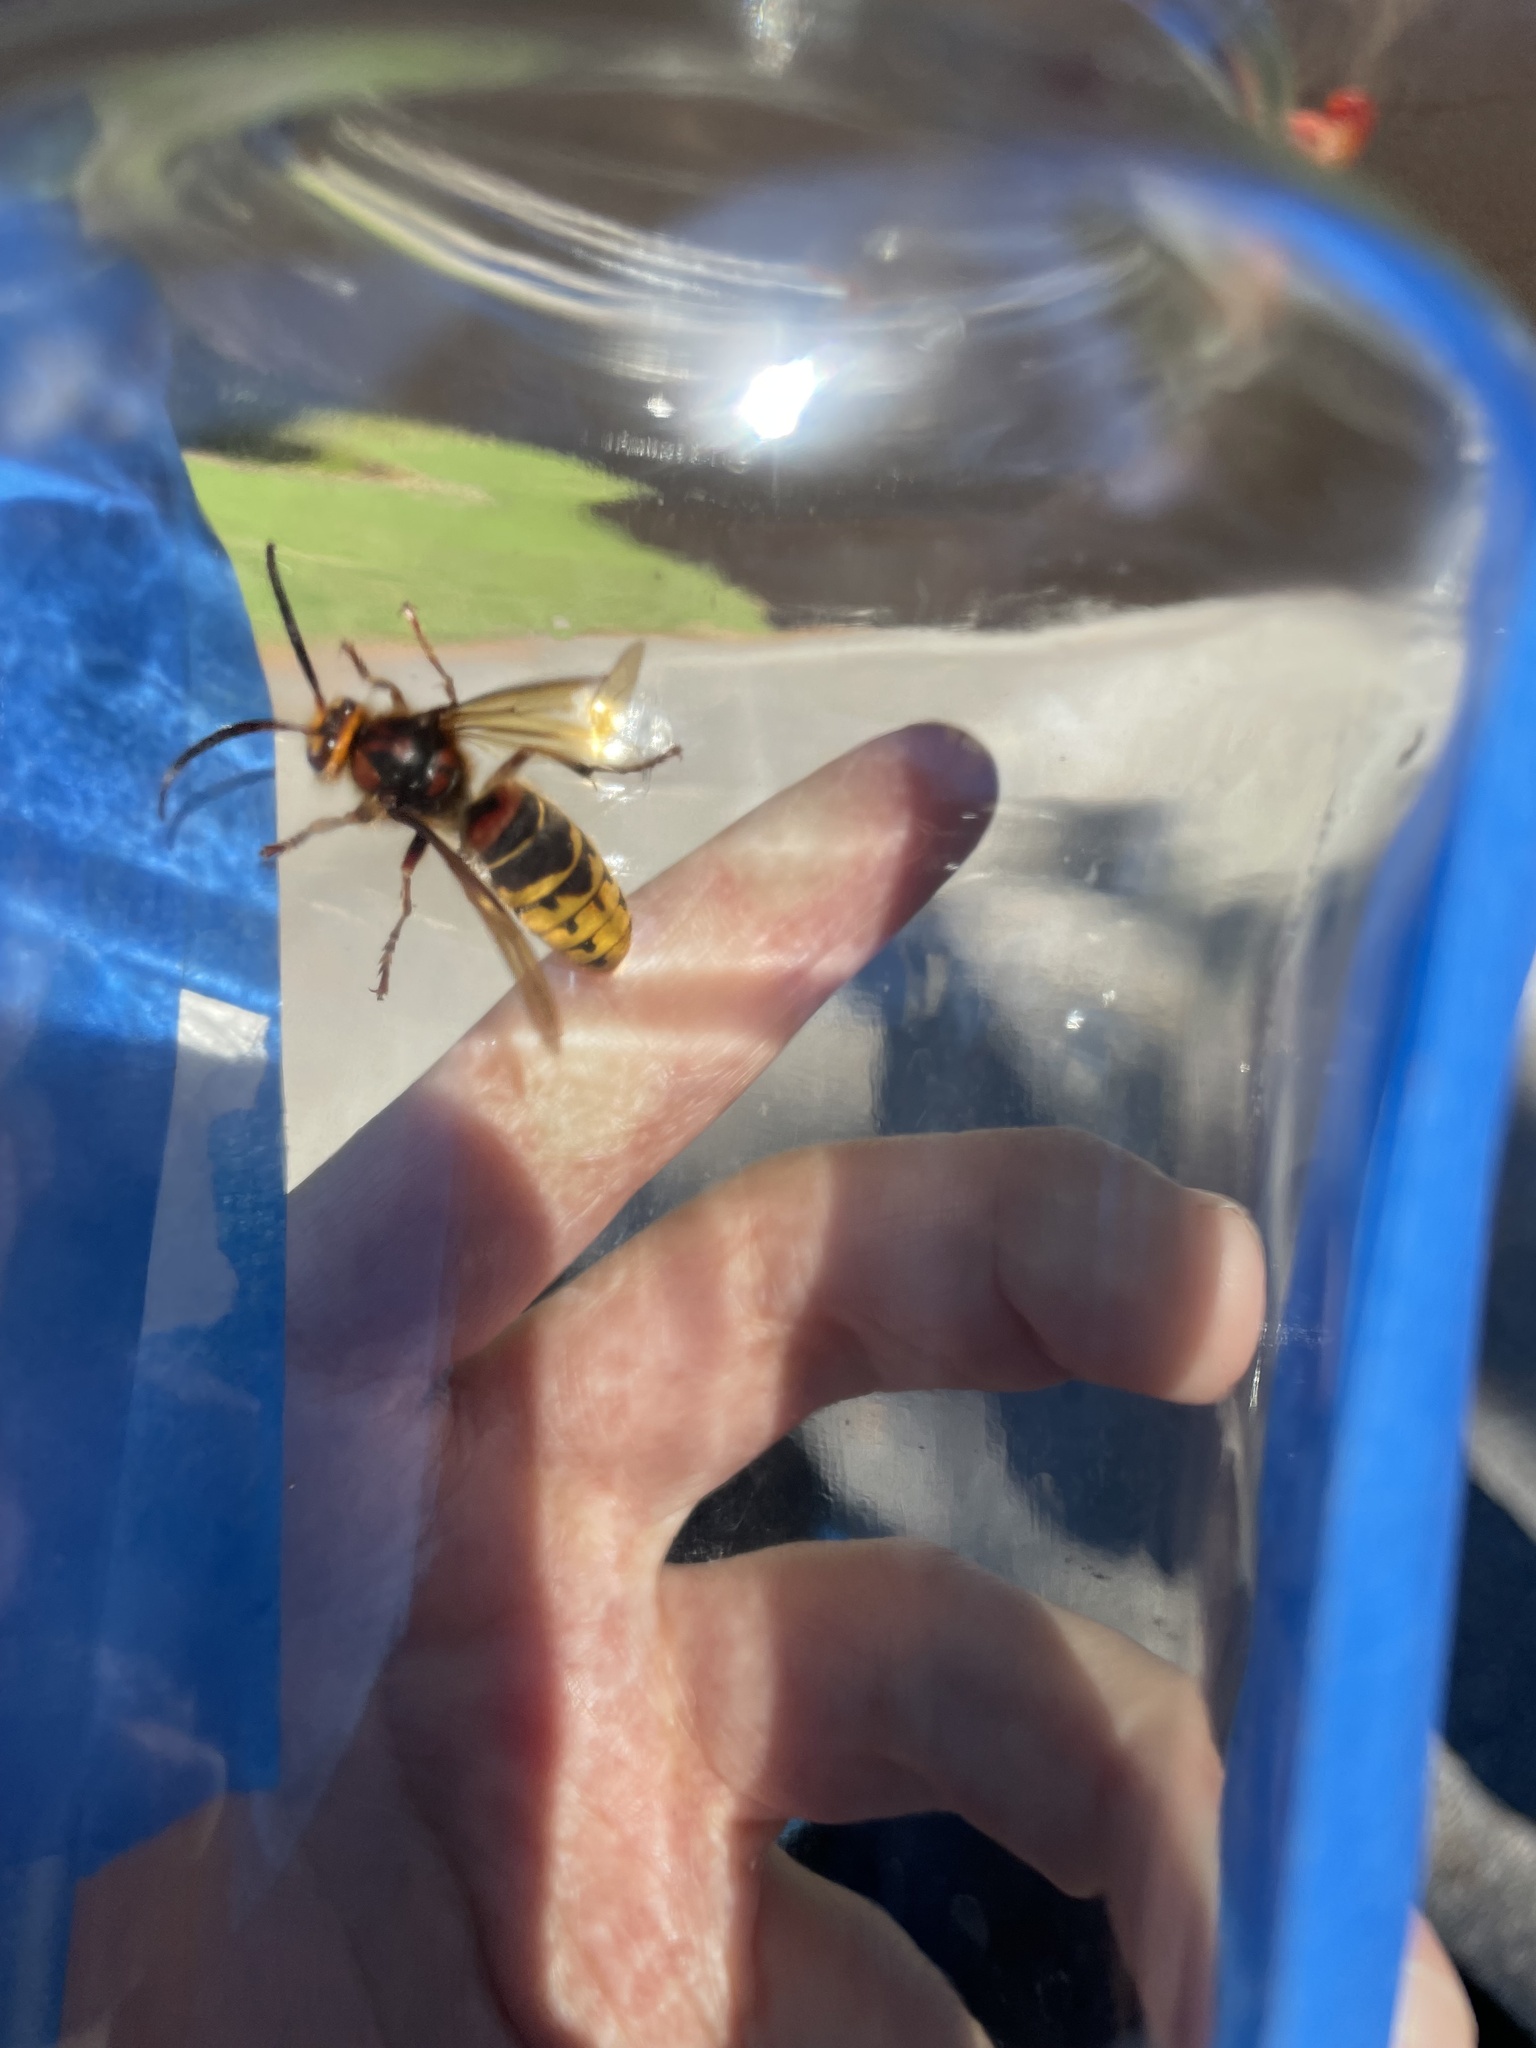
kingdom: Animalia
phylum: Arthropoda
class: Insecta
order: Hymenoptera
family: Vespidae
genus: Vespa
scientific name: Vespa crabro
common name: Hornet
